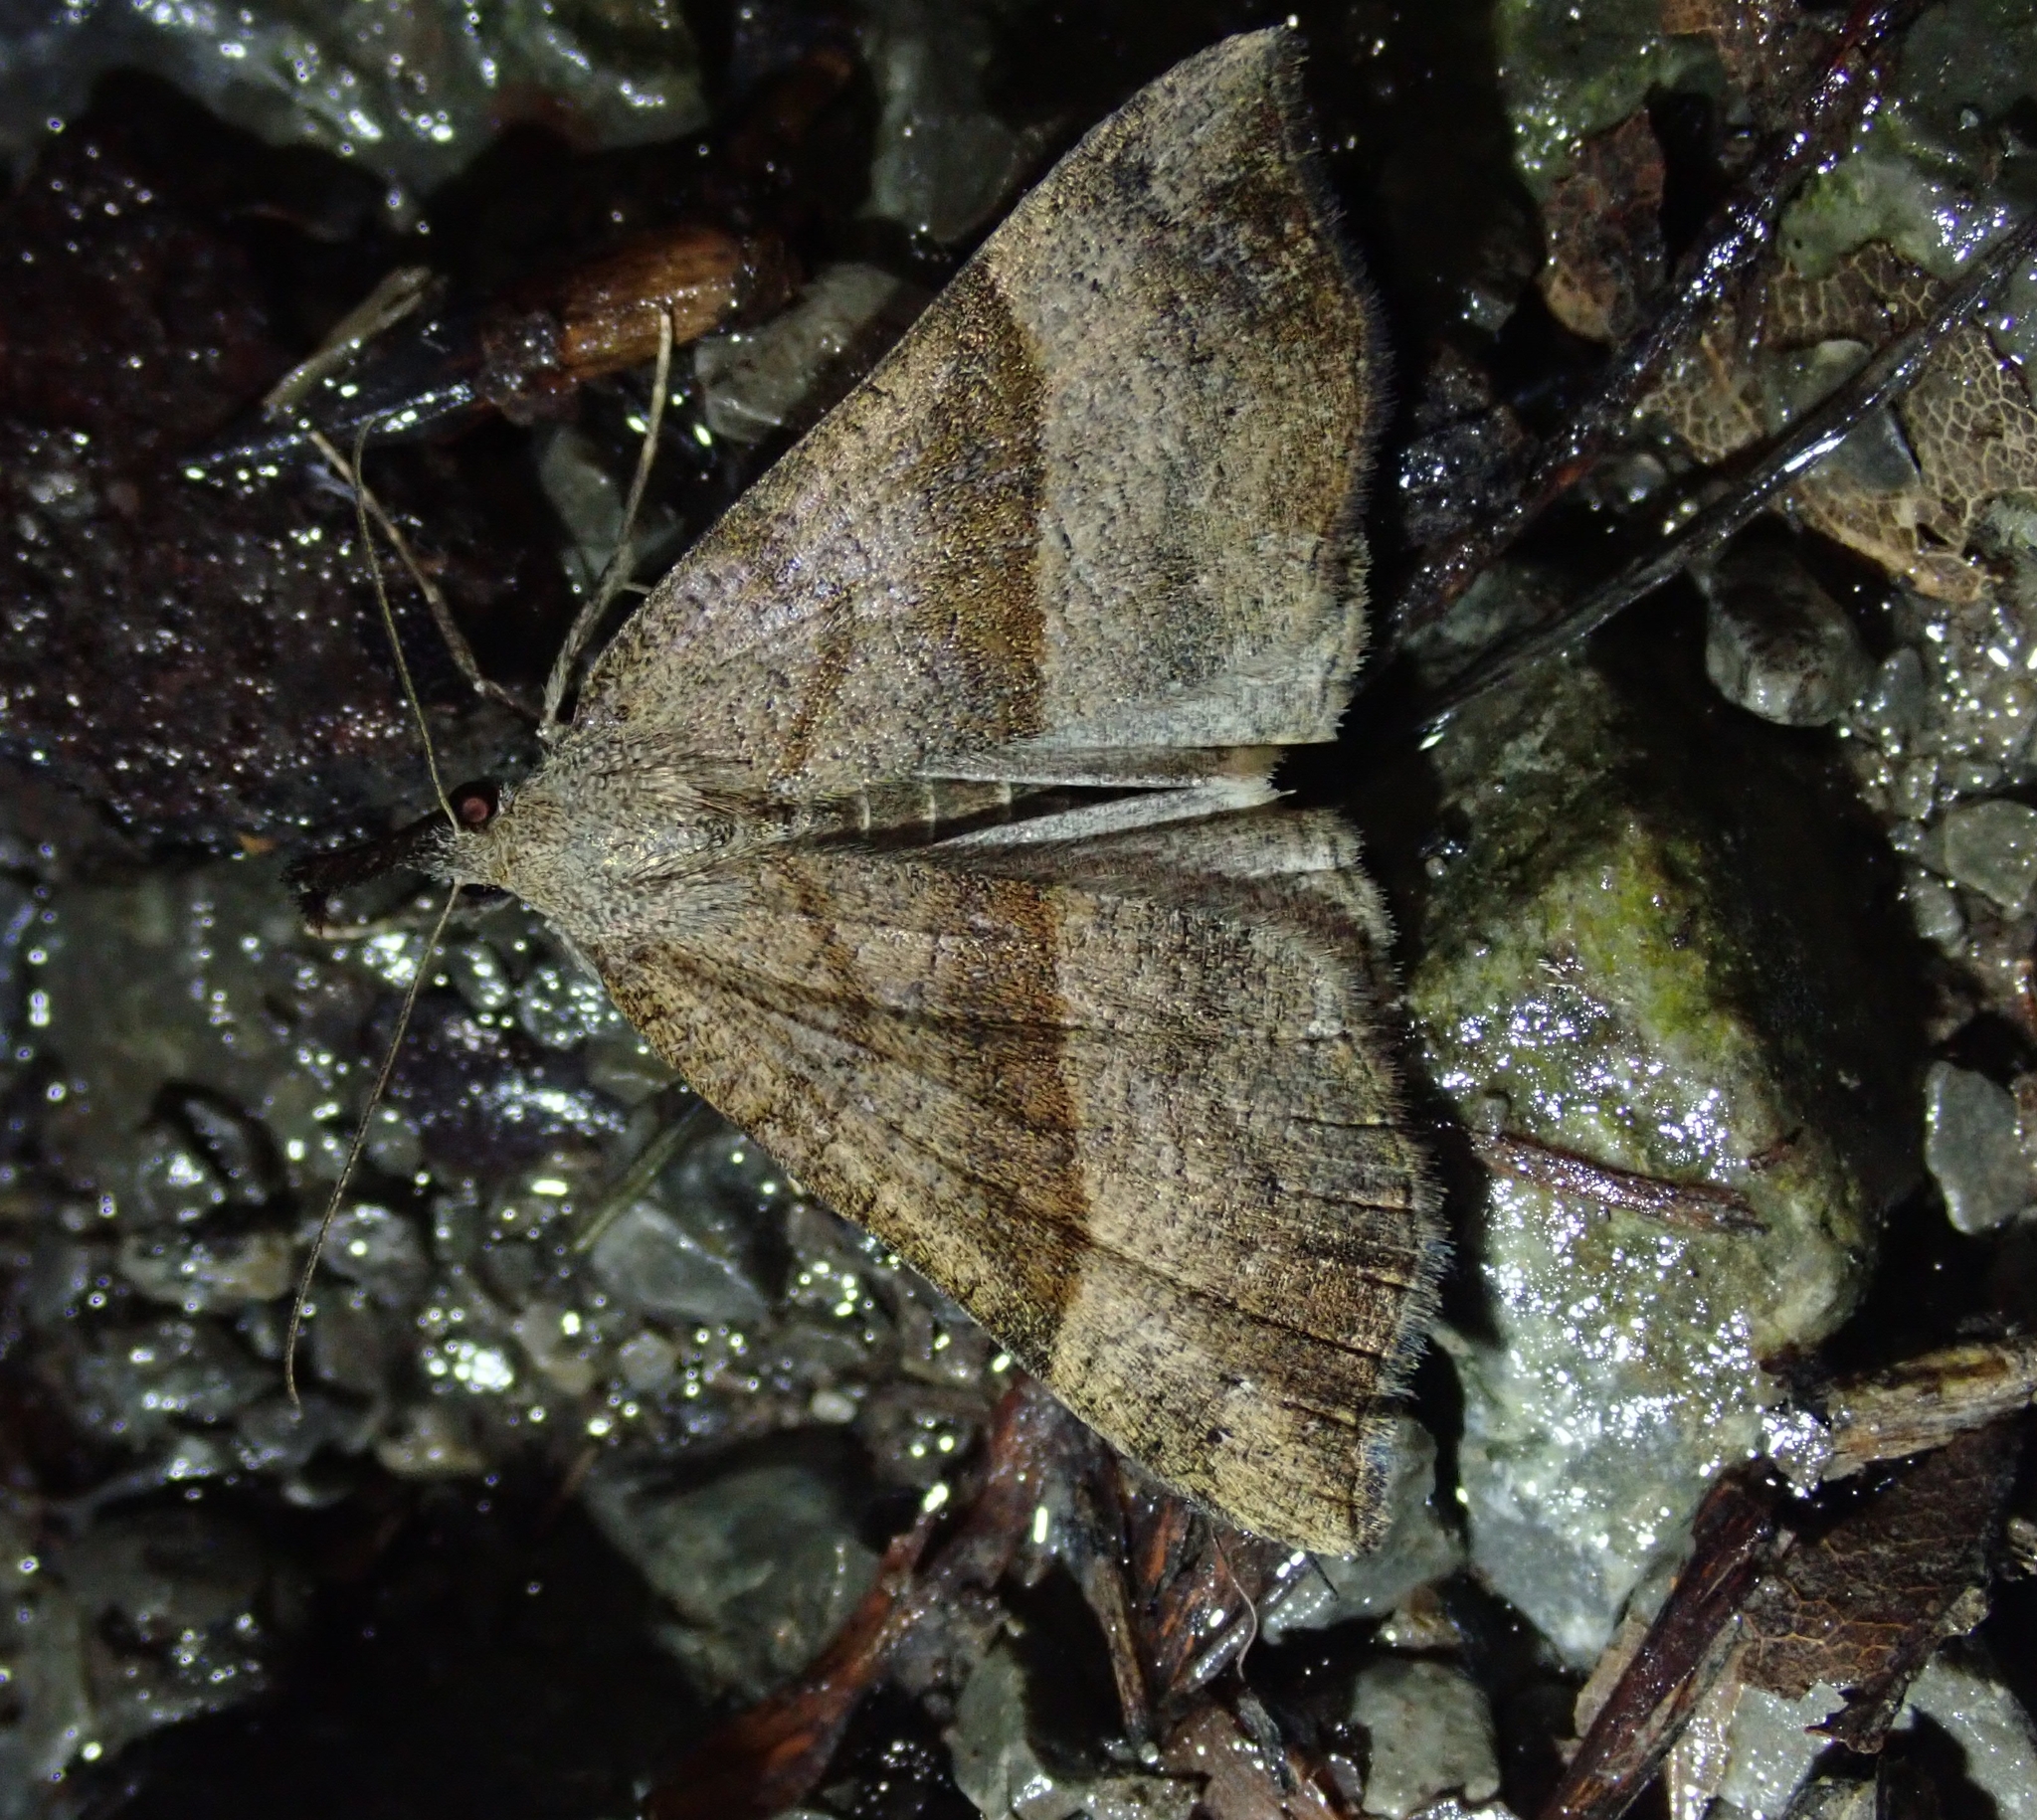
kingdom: Animalia
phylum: Arthropoda
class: Insecta
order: Lepidoptera
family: Erebidae
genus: Hypena
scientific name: Hypena proboscidalis
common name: Snout
